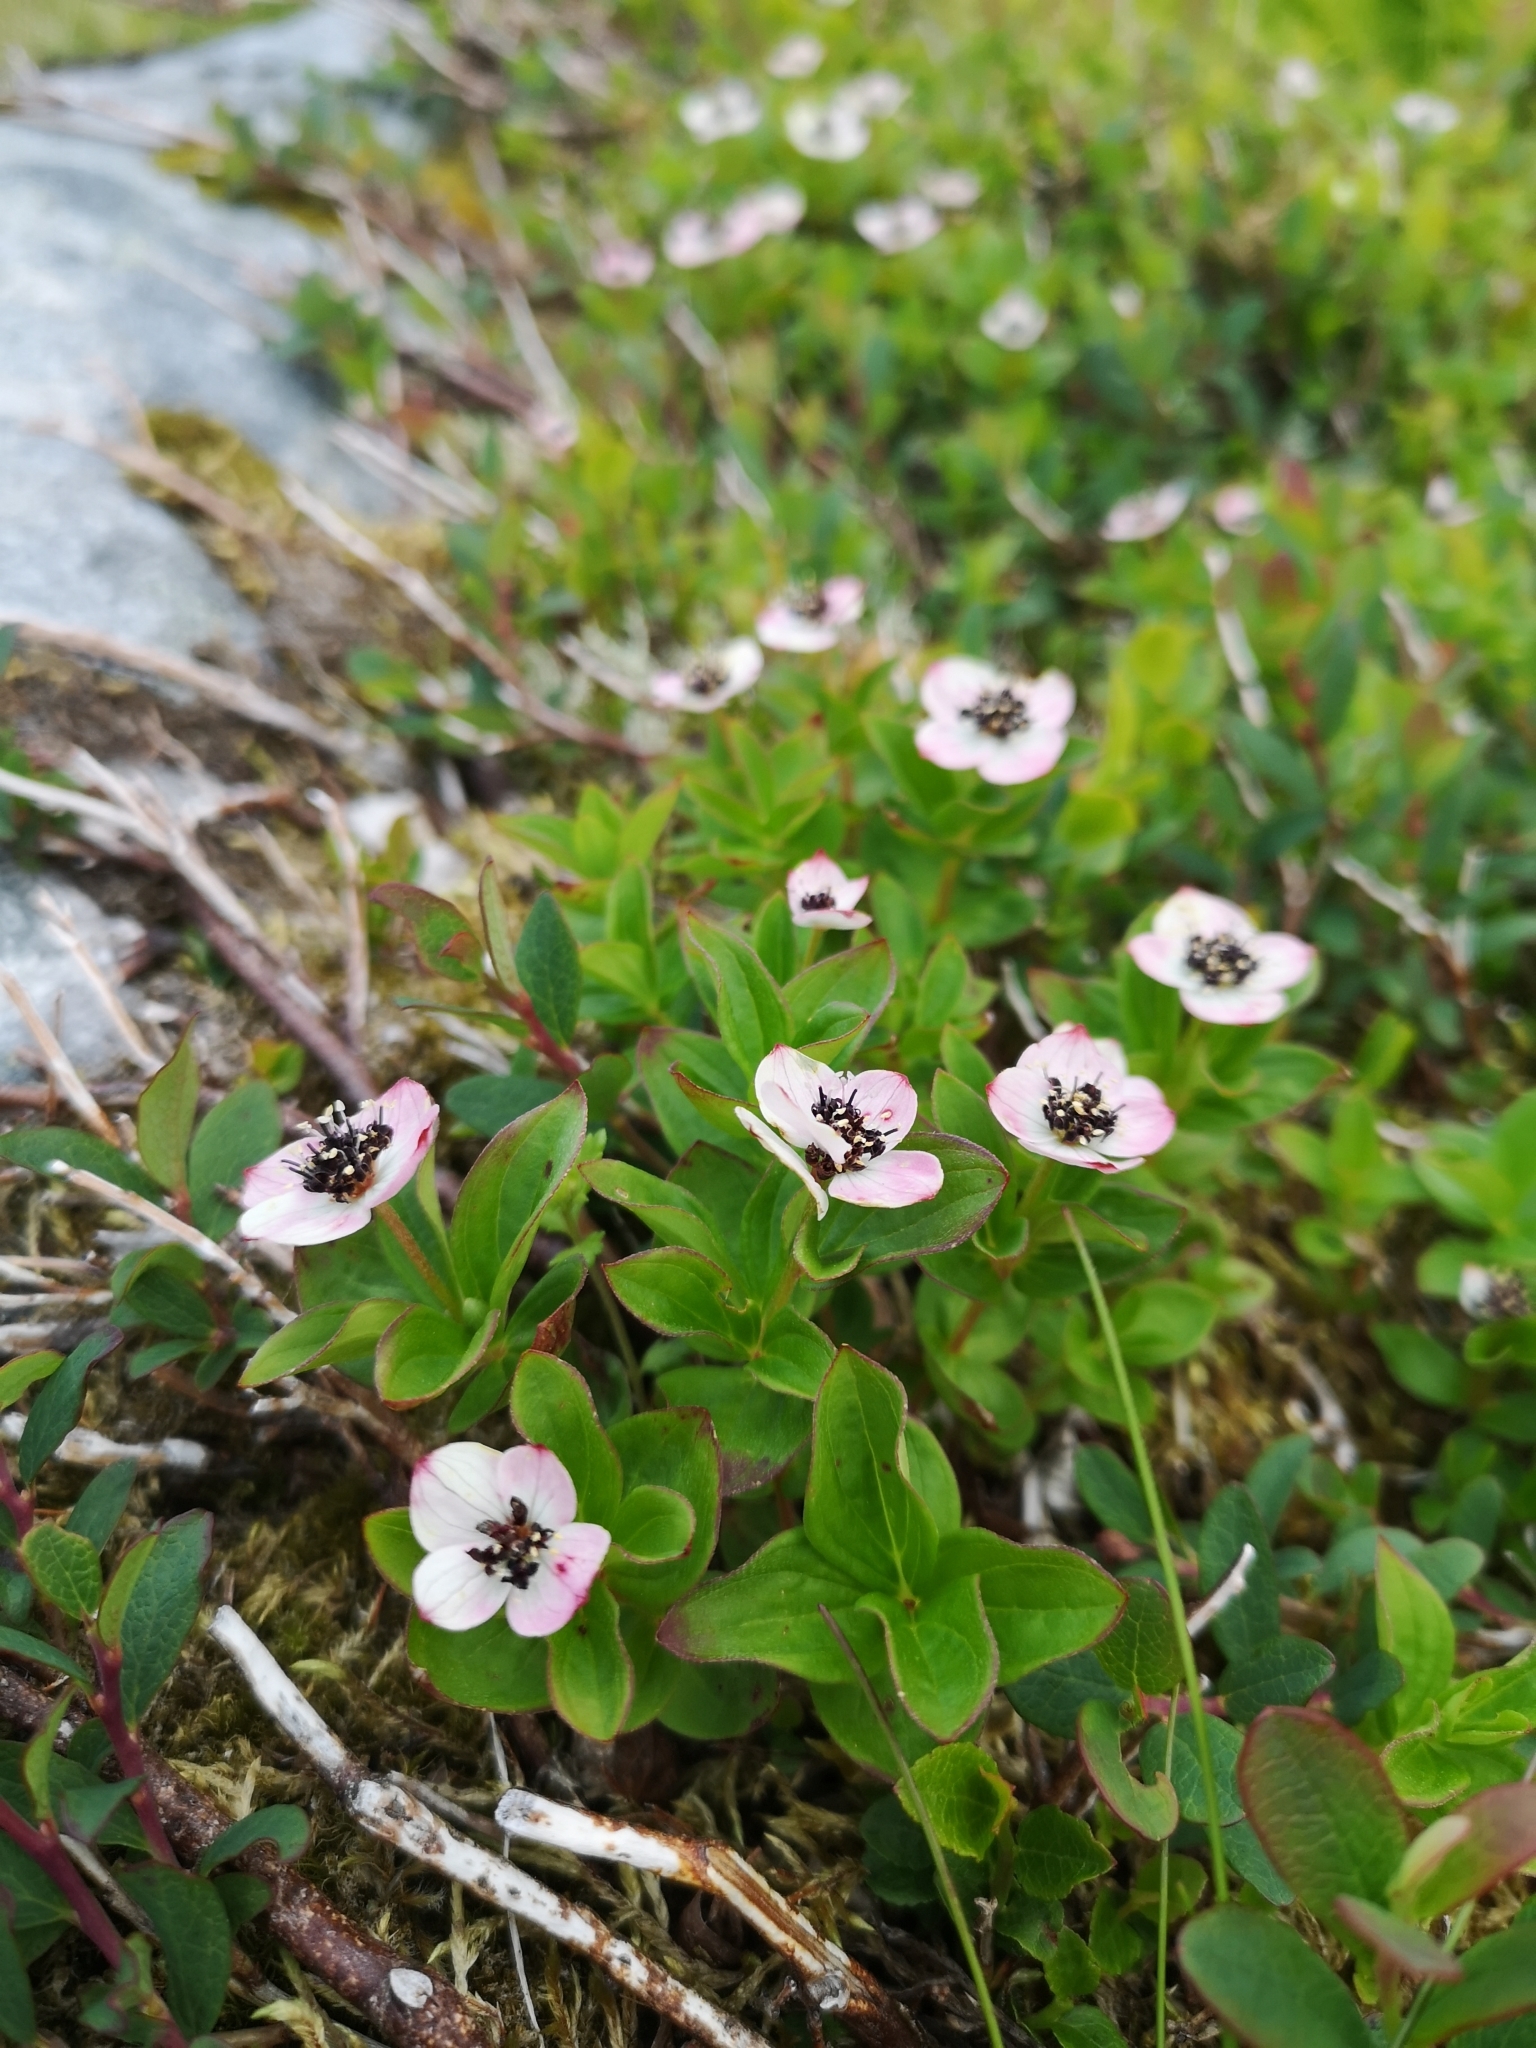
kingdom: Plantae
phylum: Tracheophyta
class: Magnoliopsida
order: Cornales
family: Cornaceae
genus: Cornus
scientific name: Cornus suecica
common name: Dwarf cornel
